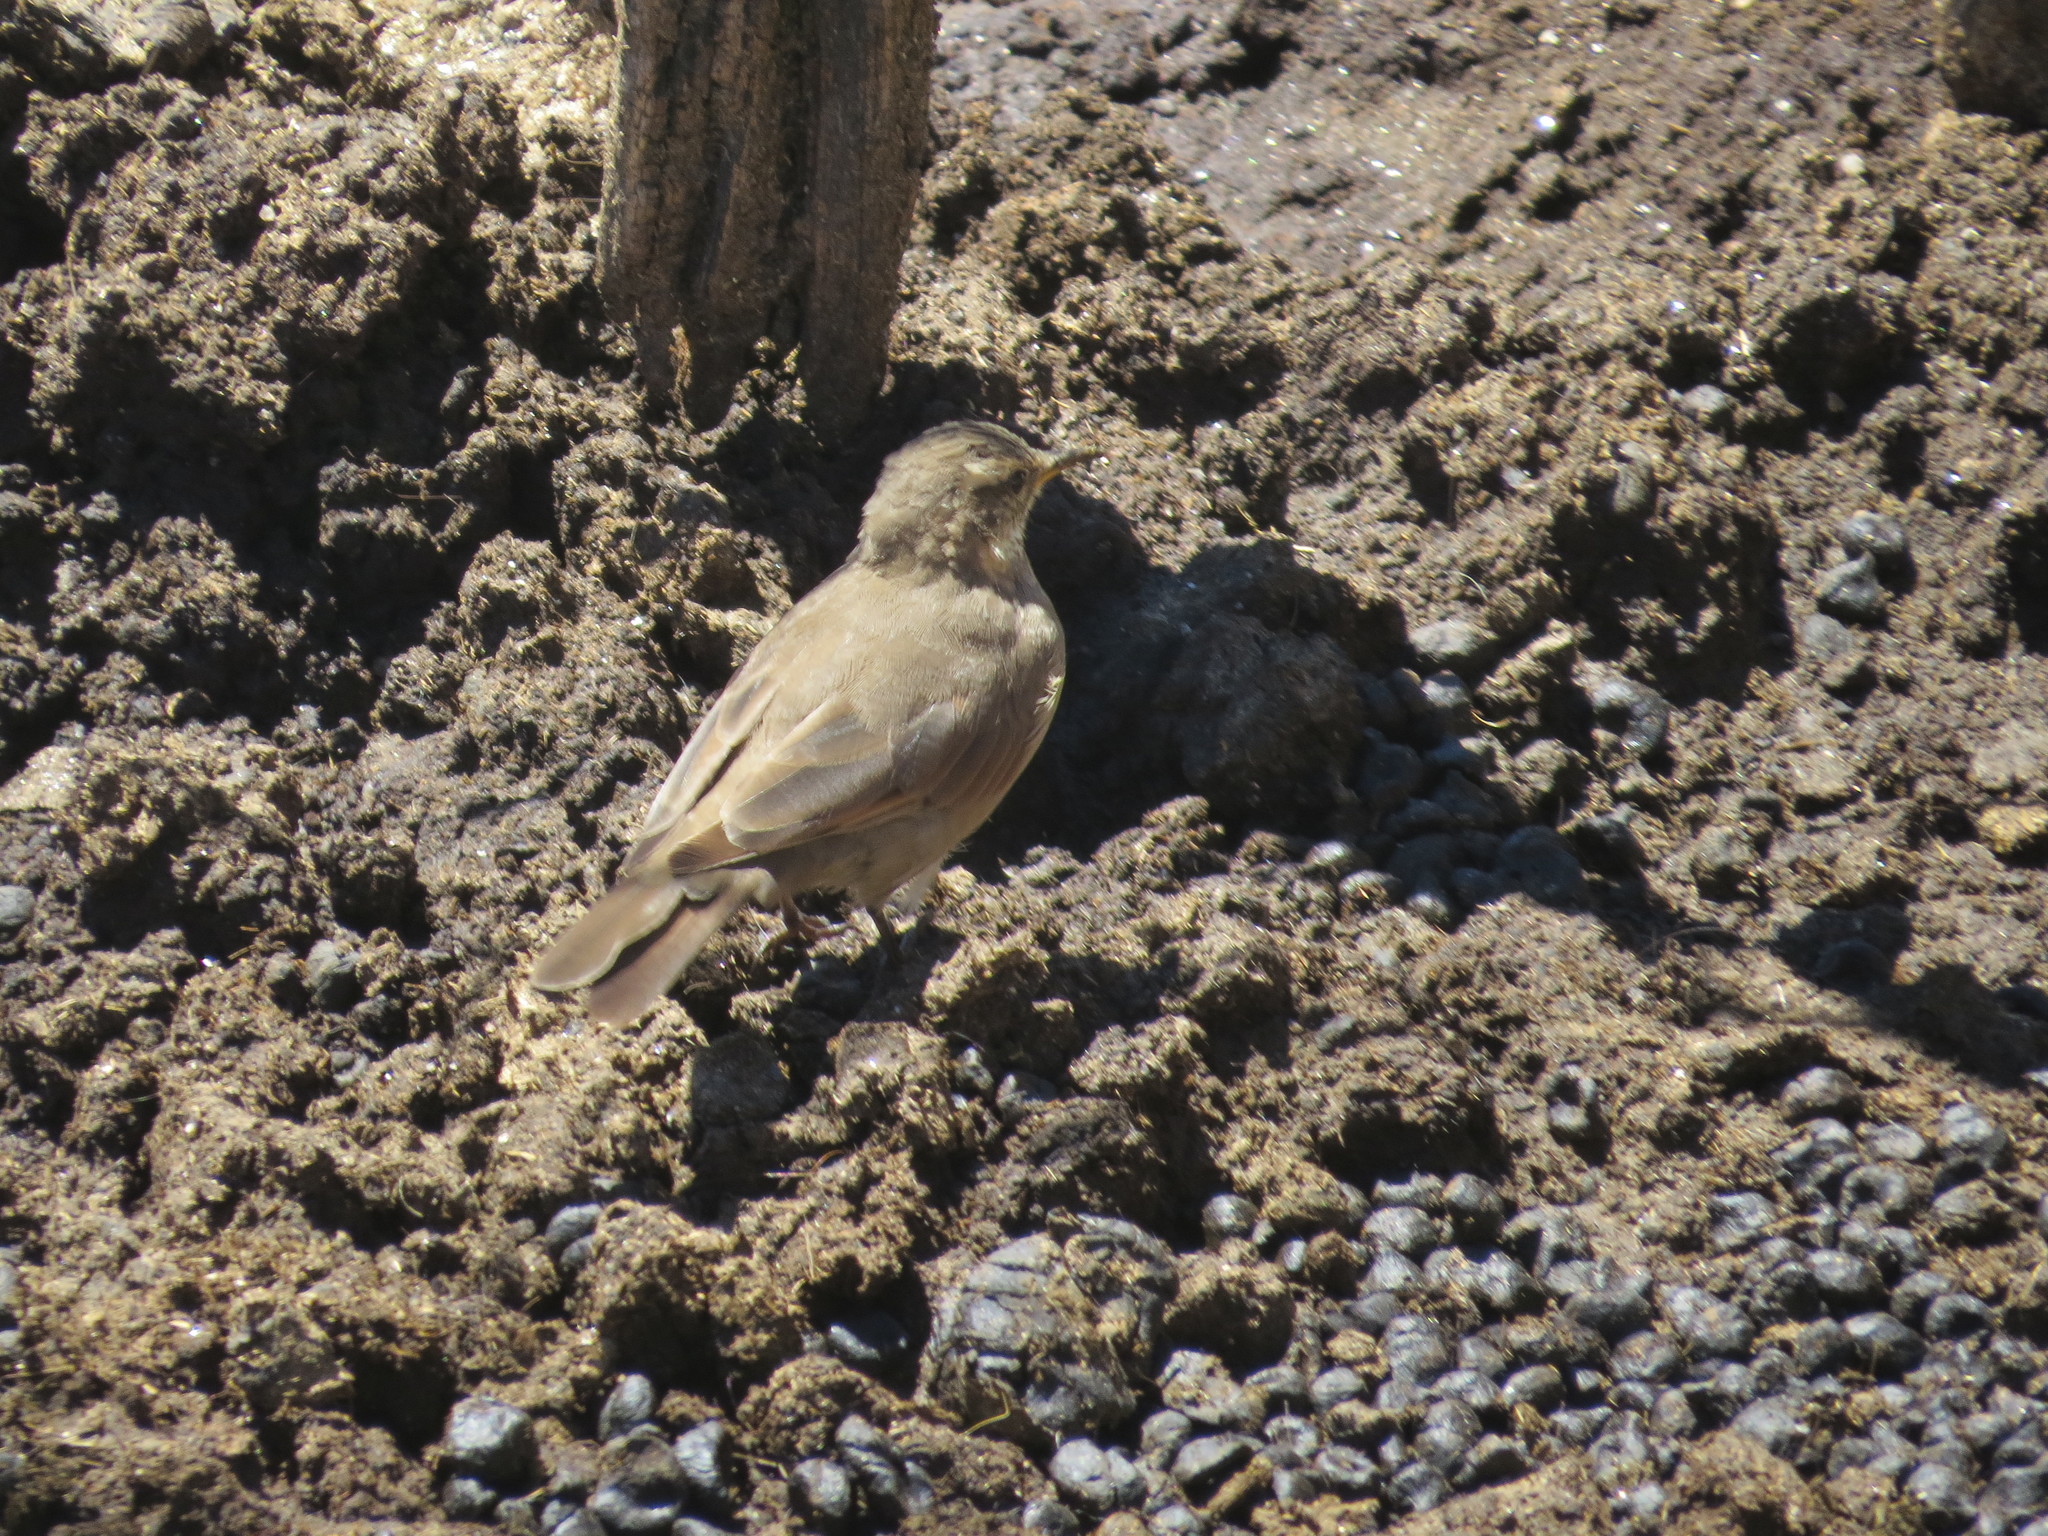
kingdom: Animalia
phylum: Chordata
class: Aves
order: Passeriformes
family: Furnariidae
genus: Geositta
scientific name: Geositta rufipennis
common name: Rufous-banded miner
